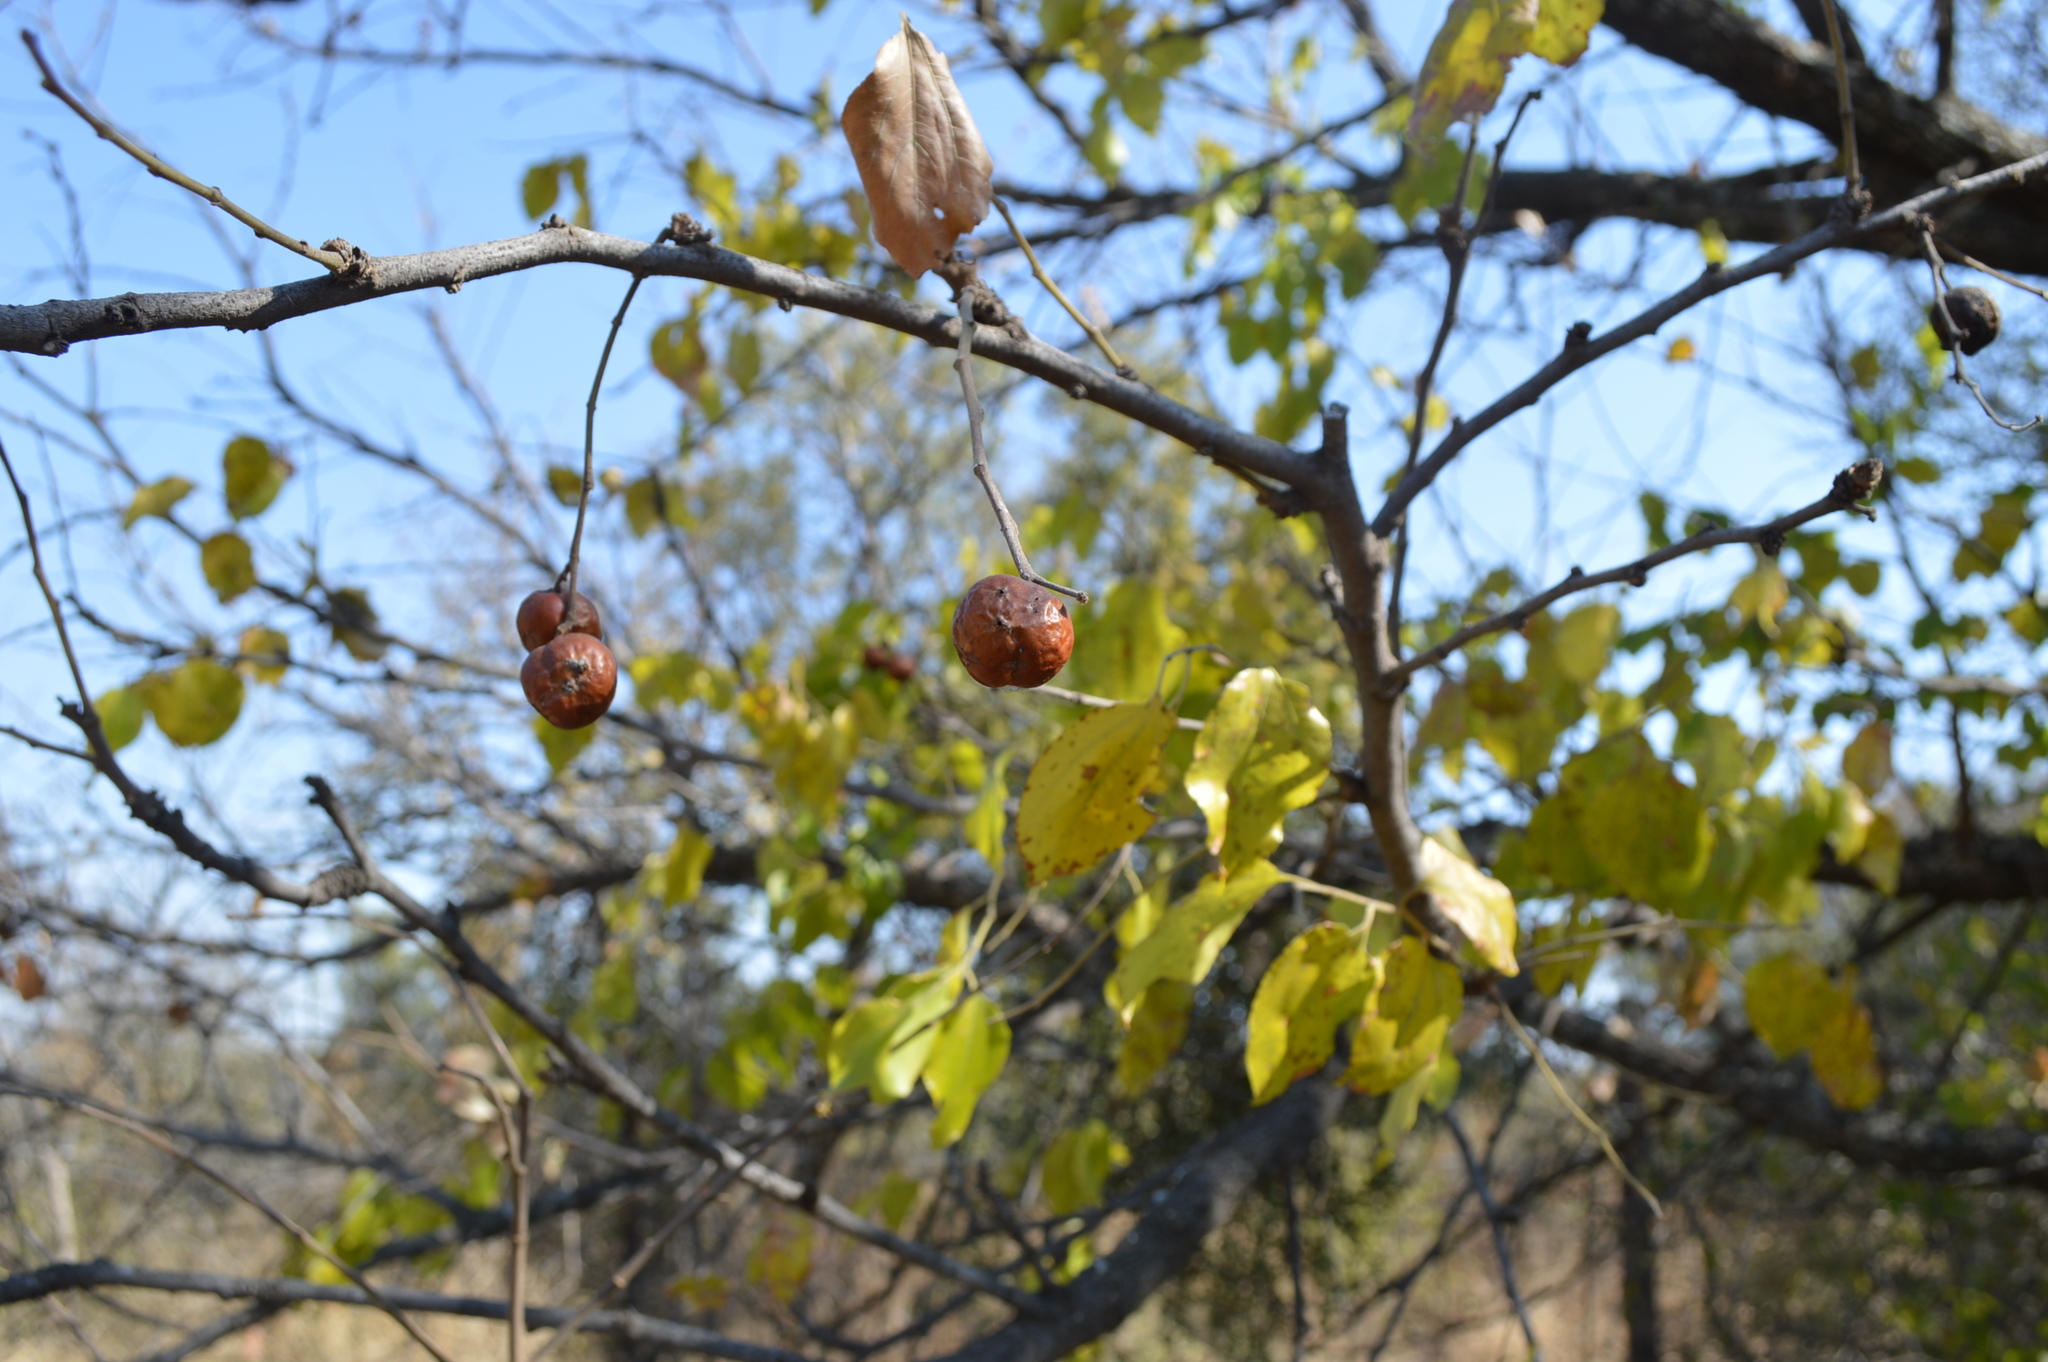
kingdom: Plantae
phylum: Tracheophyta
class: Magnoliopsida
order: Rosales
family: Rhamnaceae
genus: Ziziphus
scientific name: Ziziphus mucronata
